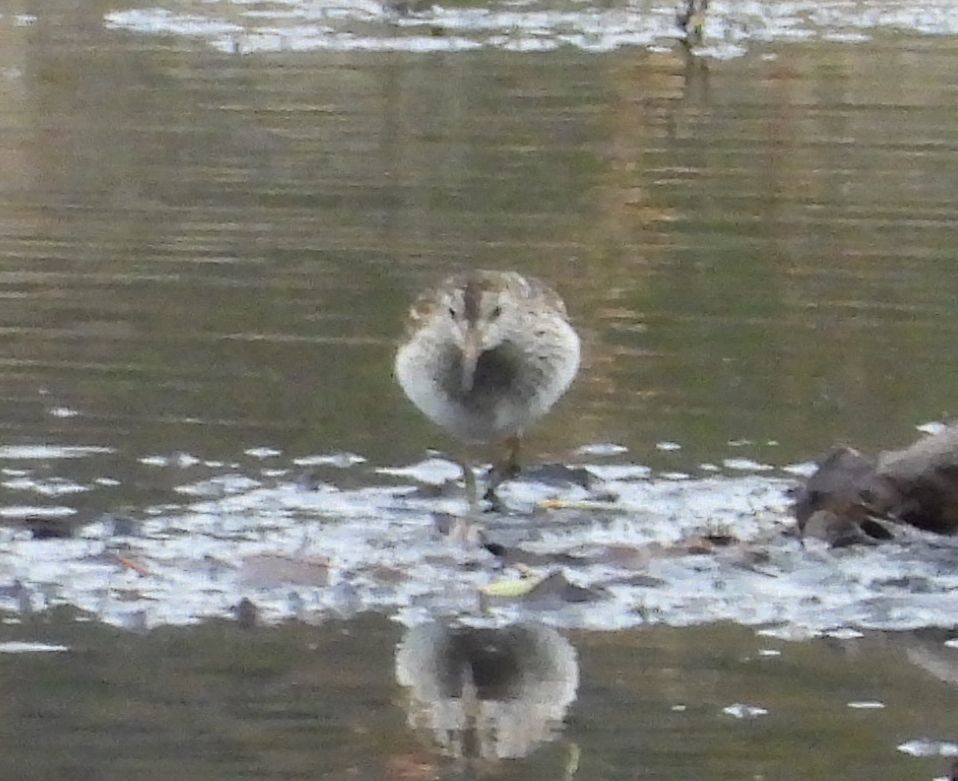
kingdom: Animalia
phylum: Chordata
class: Aves
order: Charadriiformes
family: Scolopacidae
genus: Calidris
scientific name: Calidris melanotos
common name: Pectoral sandpiper
